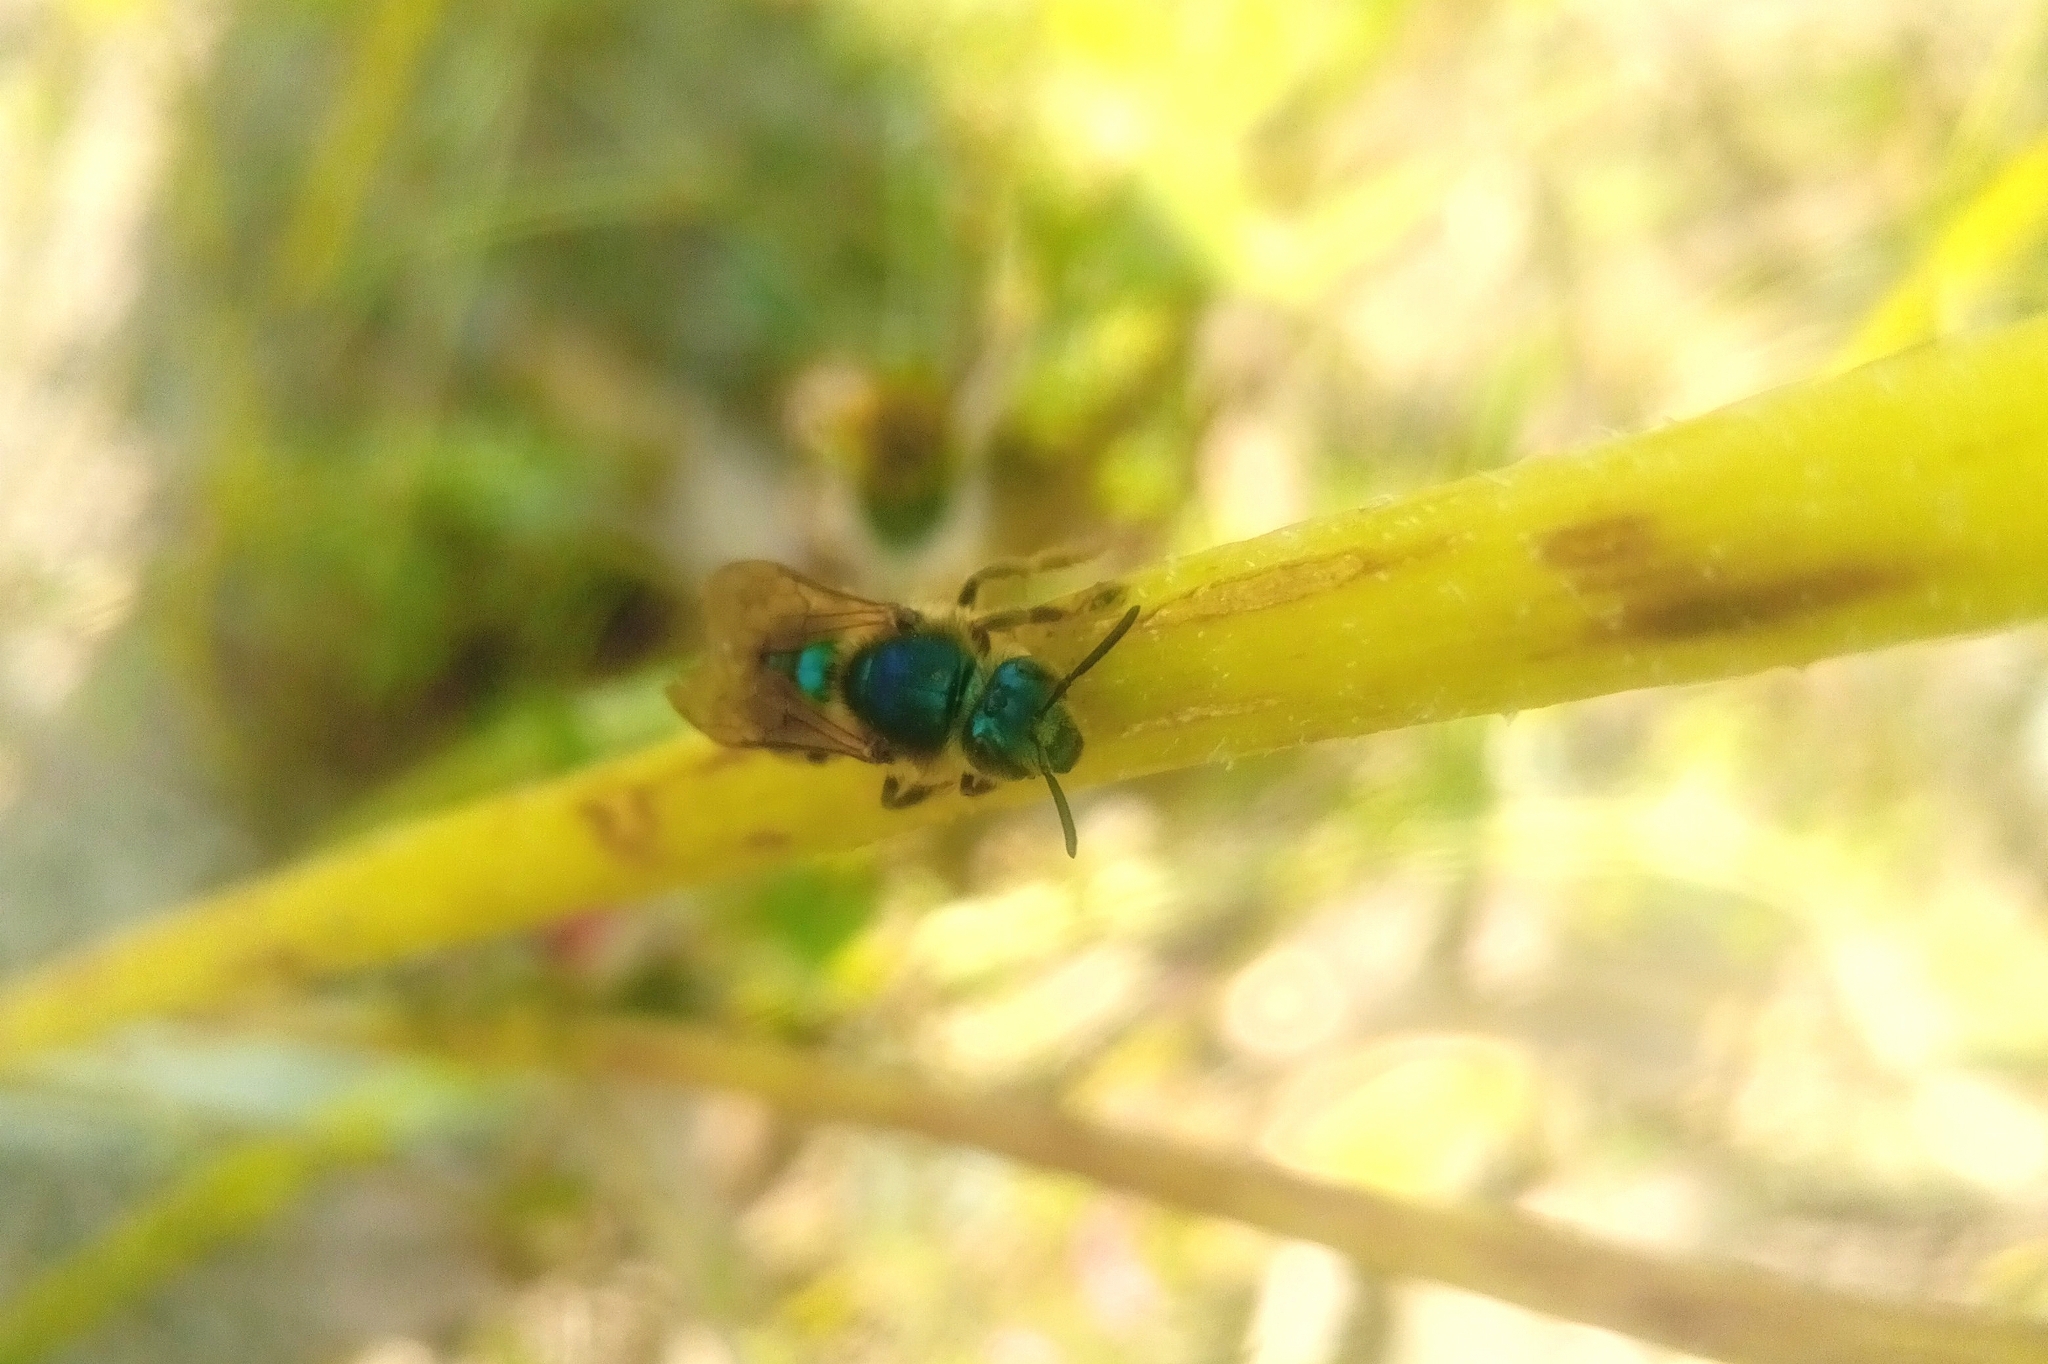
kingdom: Animalia
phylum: Arthropoda
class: Insecta
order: Hymenoptera
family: Halictidae
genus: Paragapostemon
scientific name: Paragapostemon coelestinus
